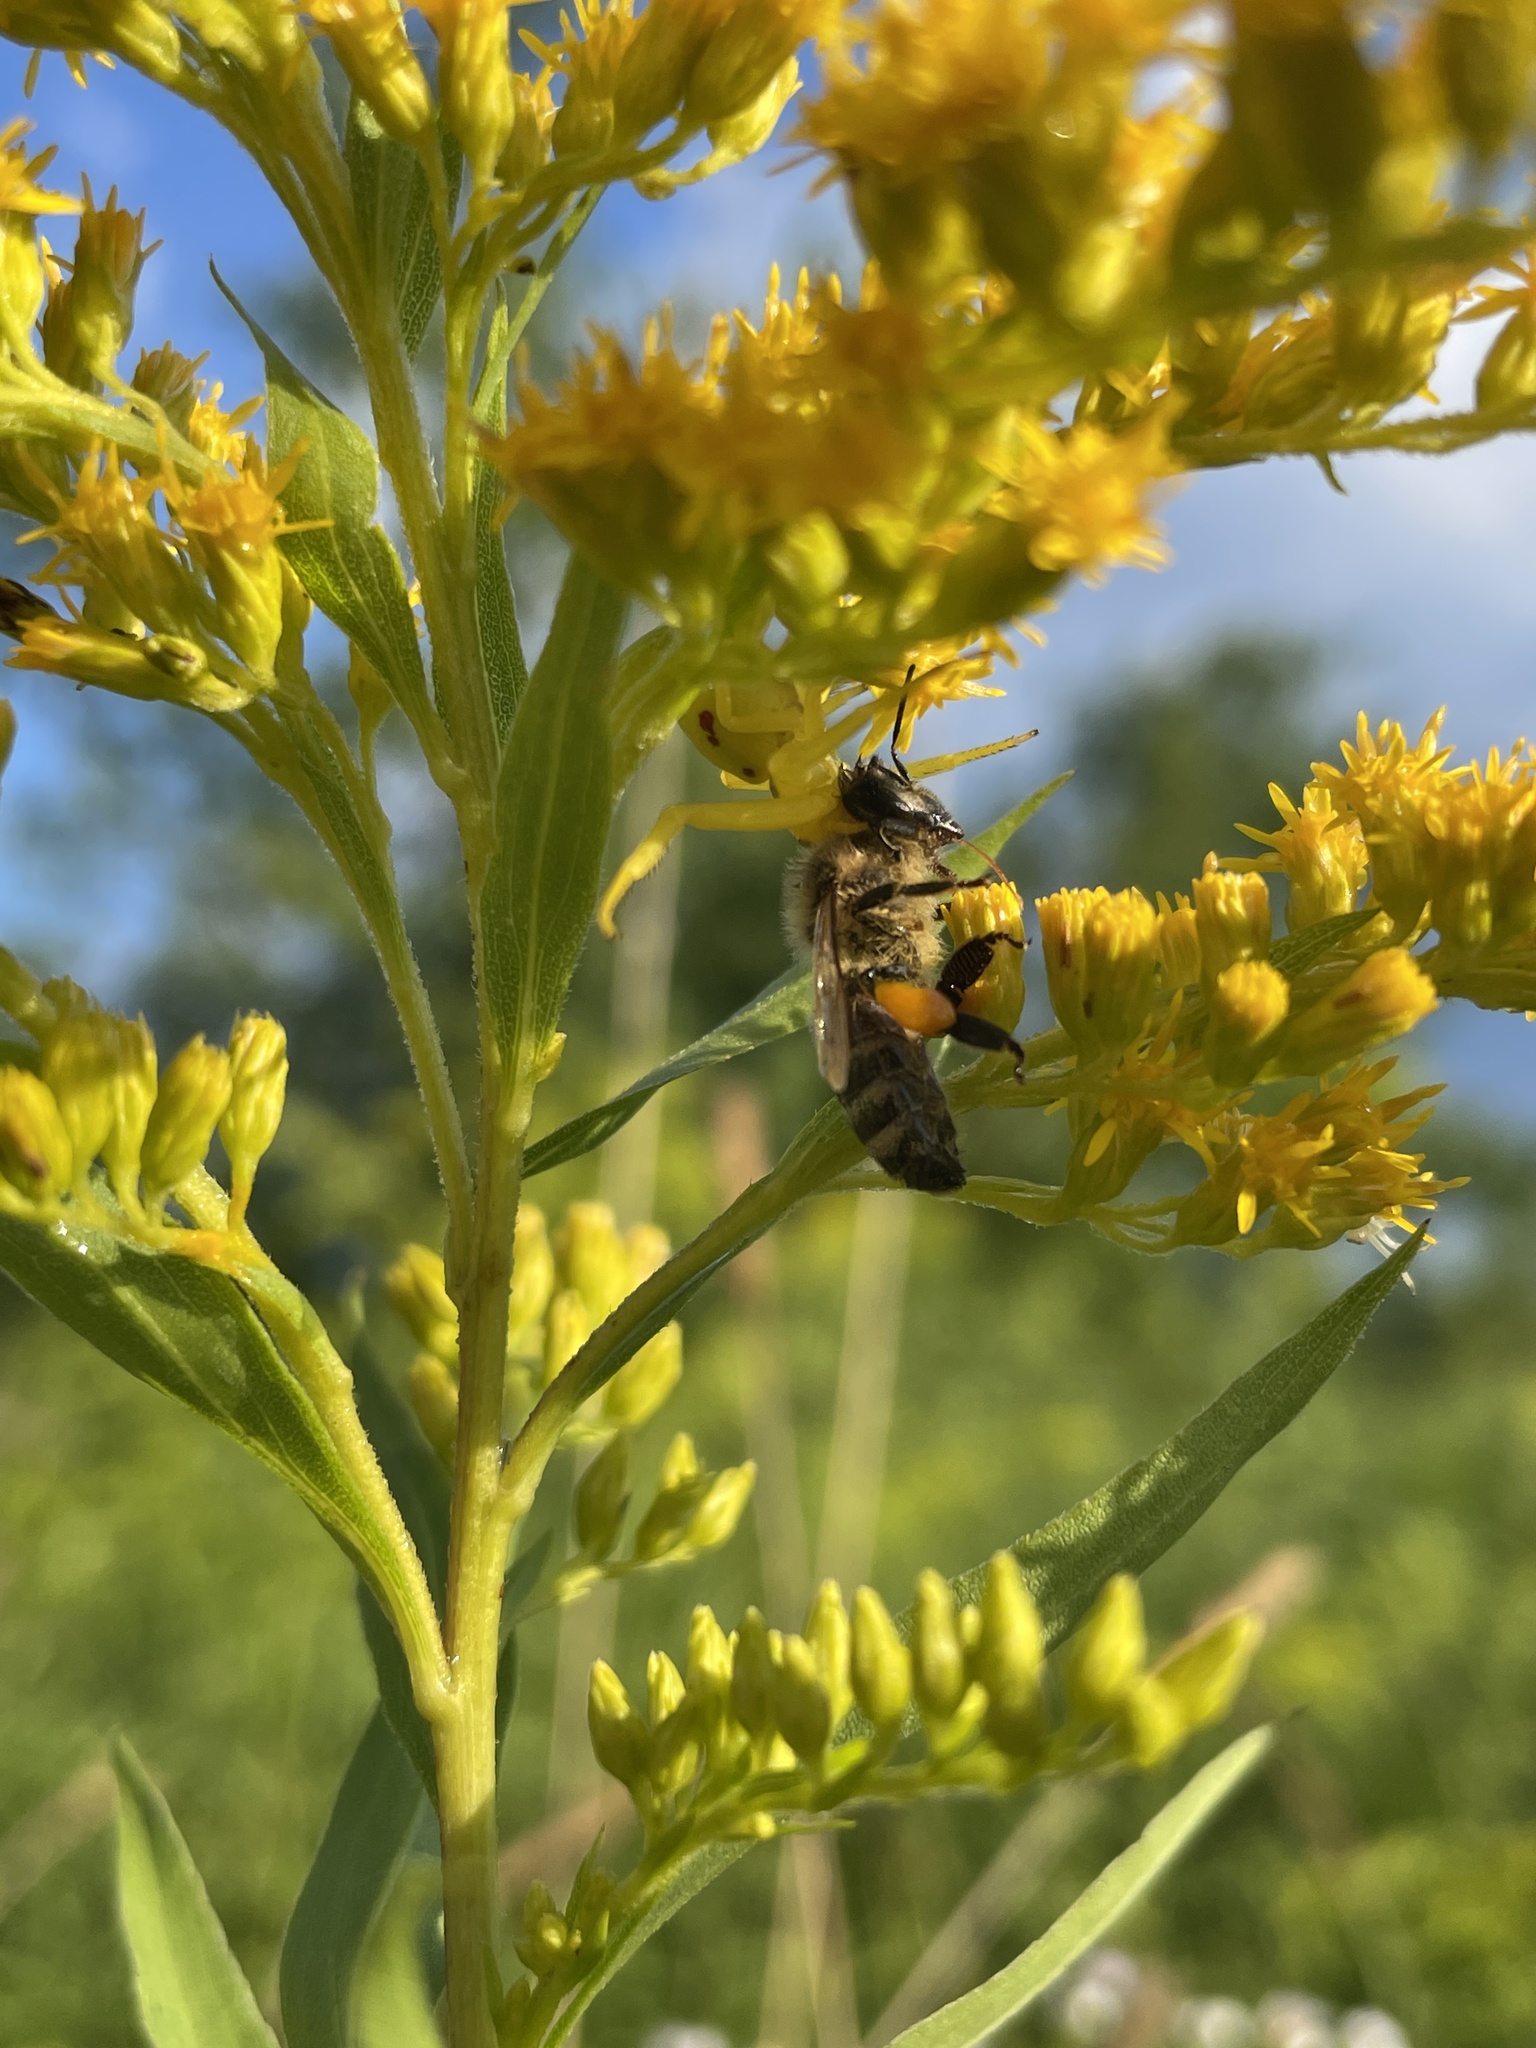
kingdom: Animalia
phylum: Arthropoda
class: Arachnida
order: Araneae
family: Thomisidae
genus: Misumena
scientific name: Misumena vatia
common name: Goldenrod crab spider
